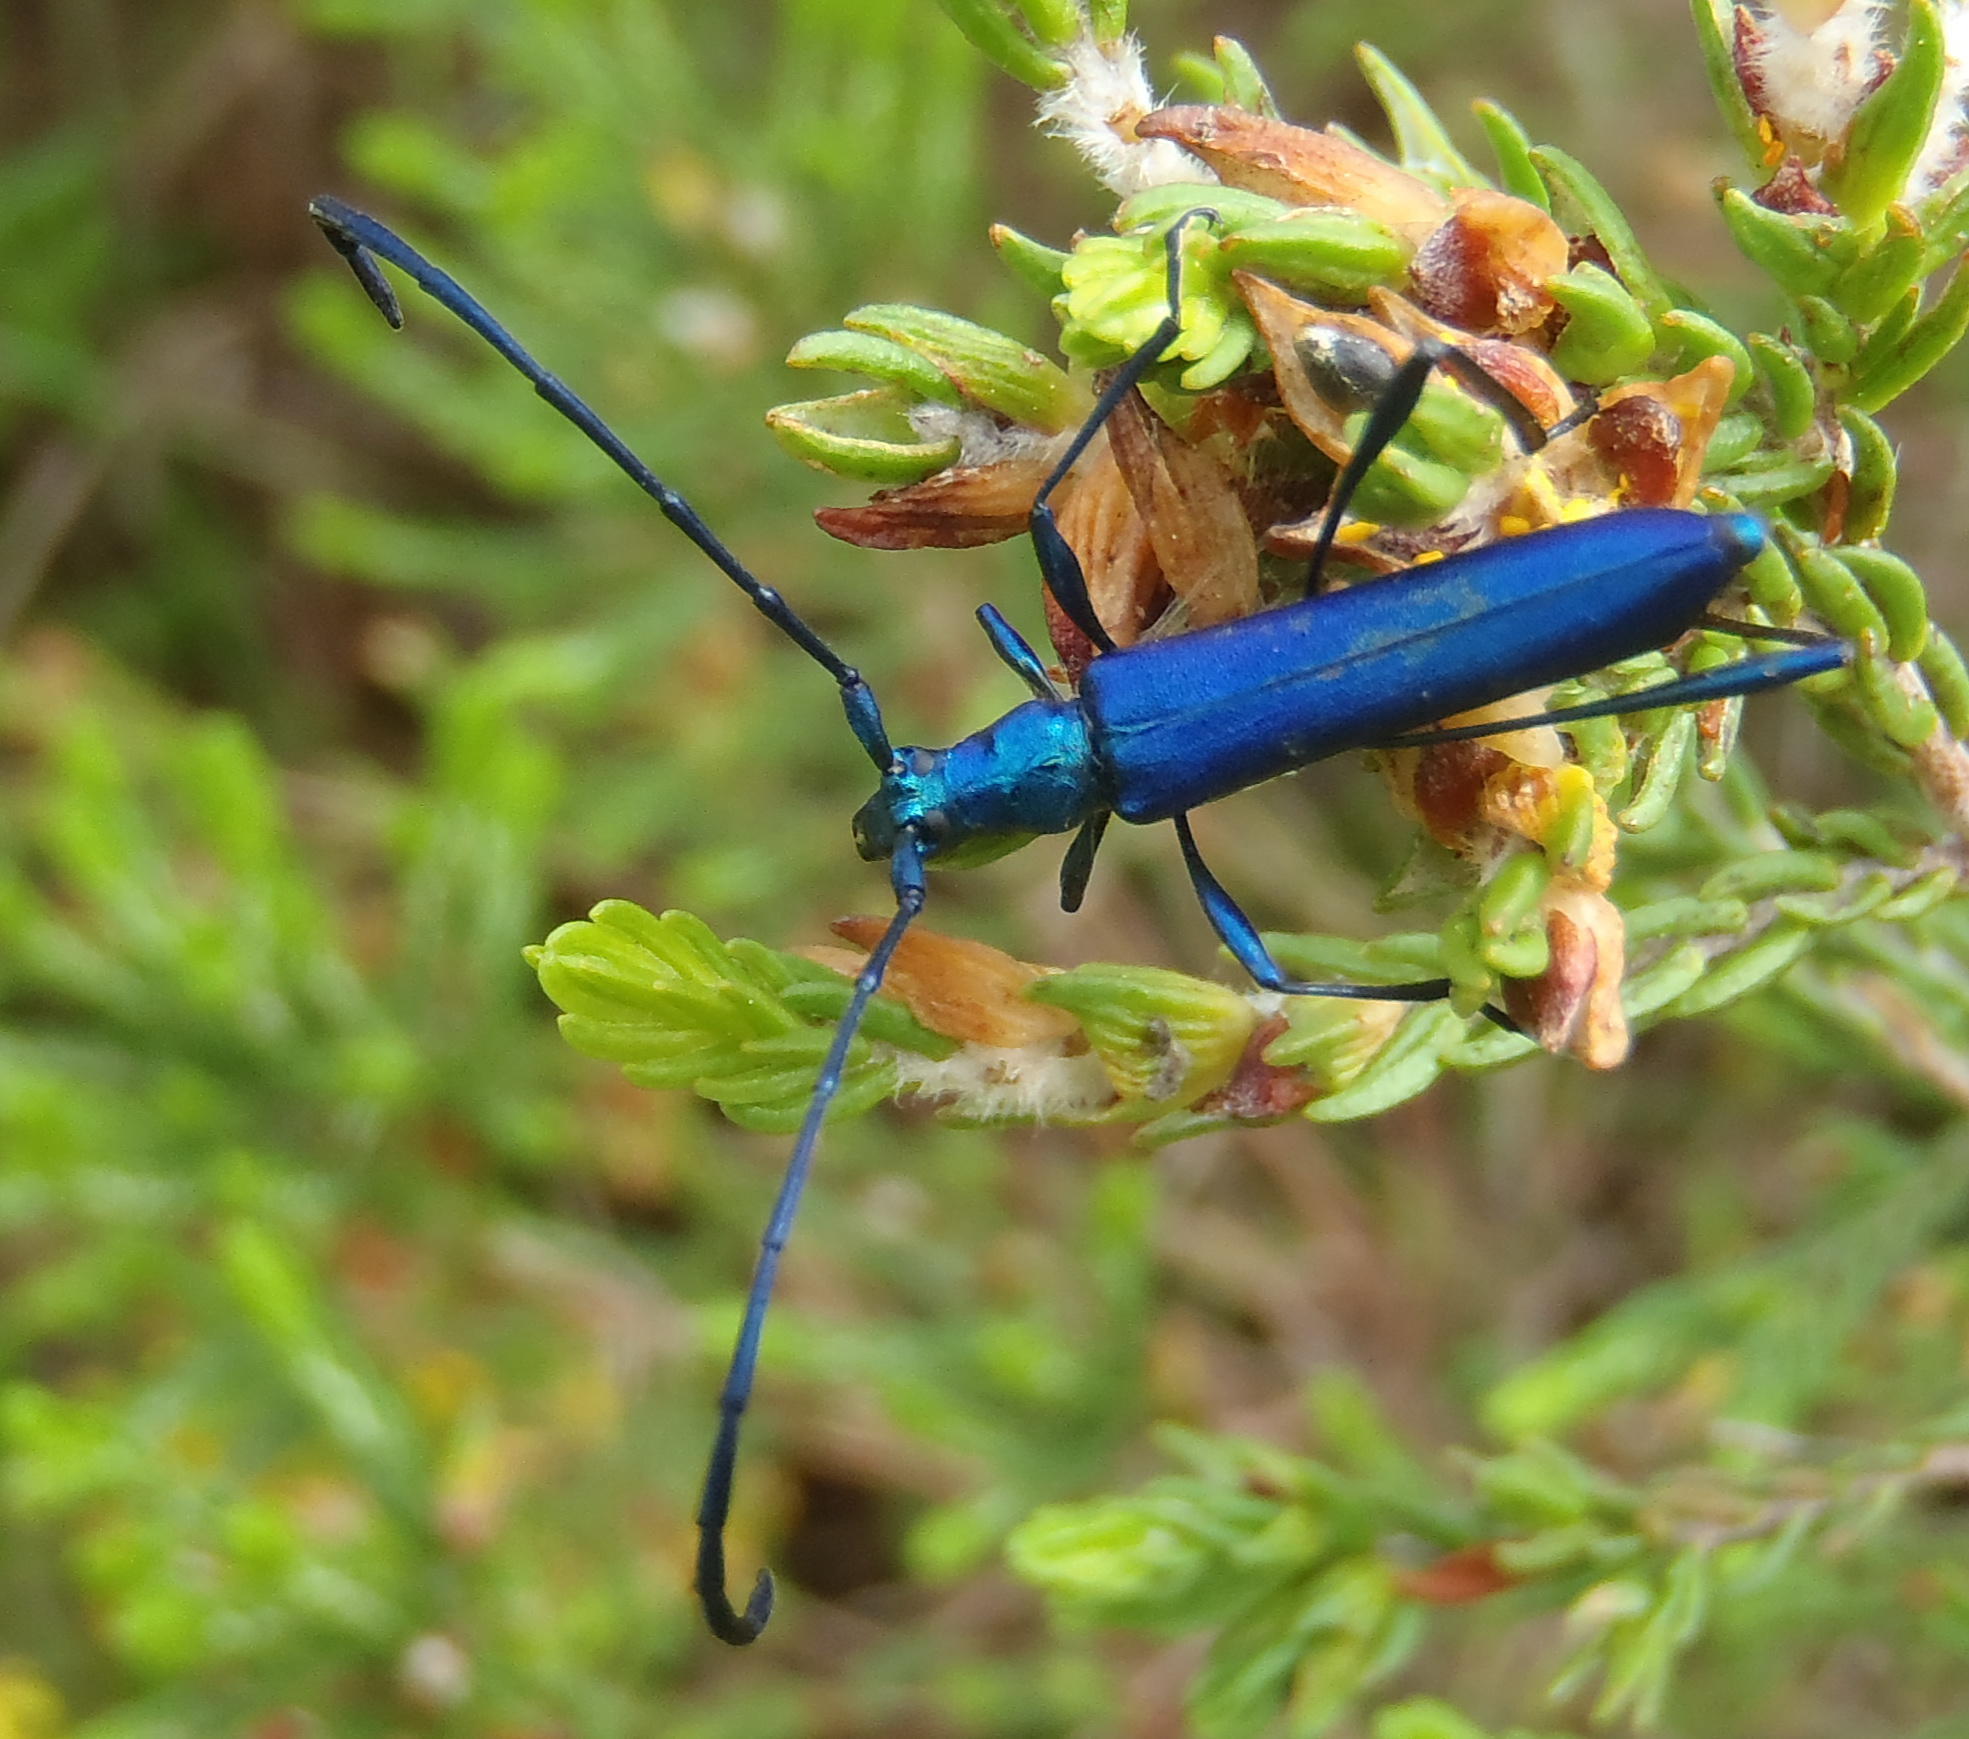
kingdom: Animalia
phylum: Arthropoda
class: Insecta
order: Coleoptera
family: Cerambycidae
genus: Promeces
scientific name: Promeces longipes
